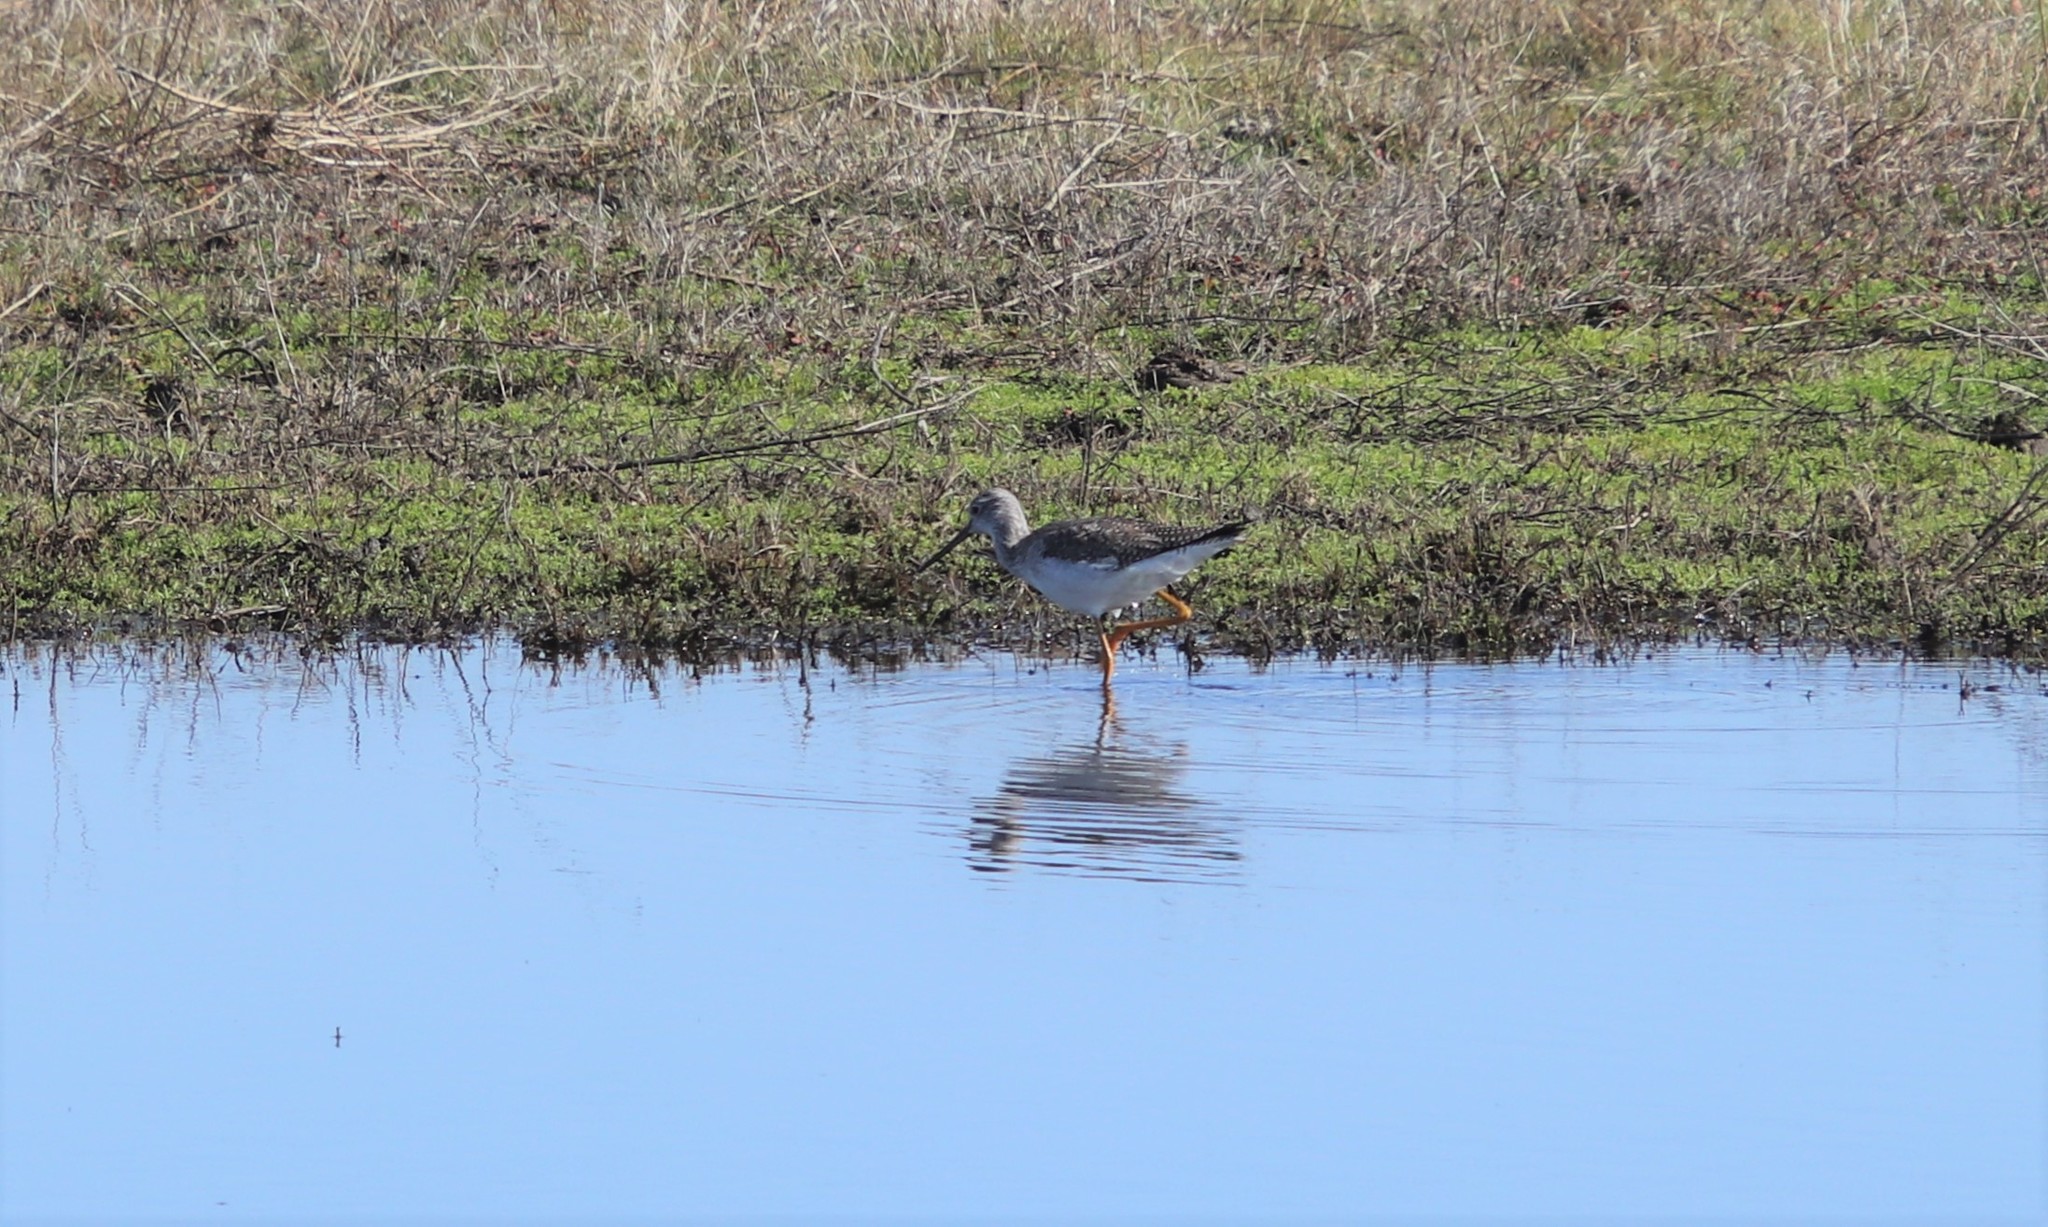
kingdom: Animalia
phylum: Chordata
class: Aves
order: Charadriiformes
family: Scolopacidae
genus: Tringa
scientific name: Tringa melanoleuca
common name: Greater yellowlegs
